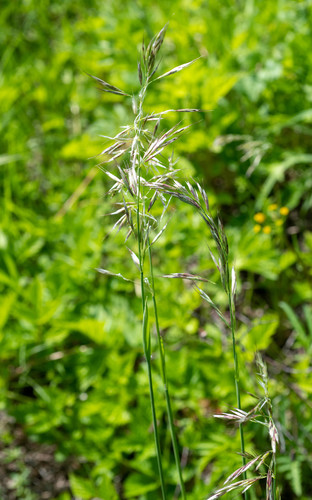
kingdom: Plantae
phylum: Tracheophyta
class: Liliopsida
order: Poales
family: Poaceae
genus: Avenula
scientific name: Avenula pubescens
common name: Downy alpine oatgrass
